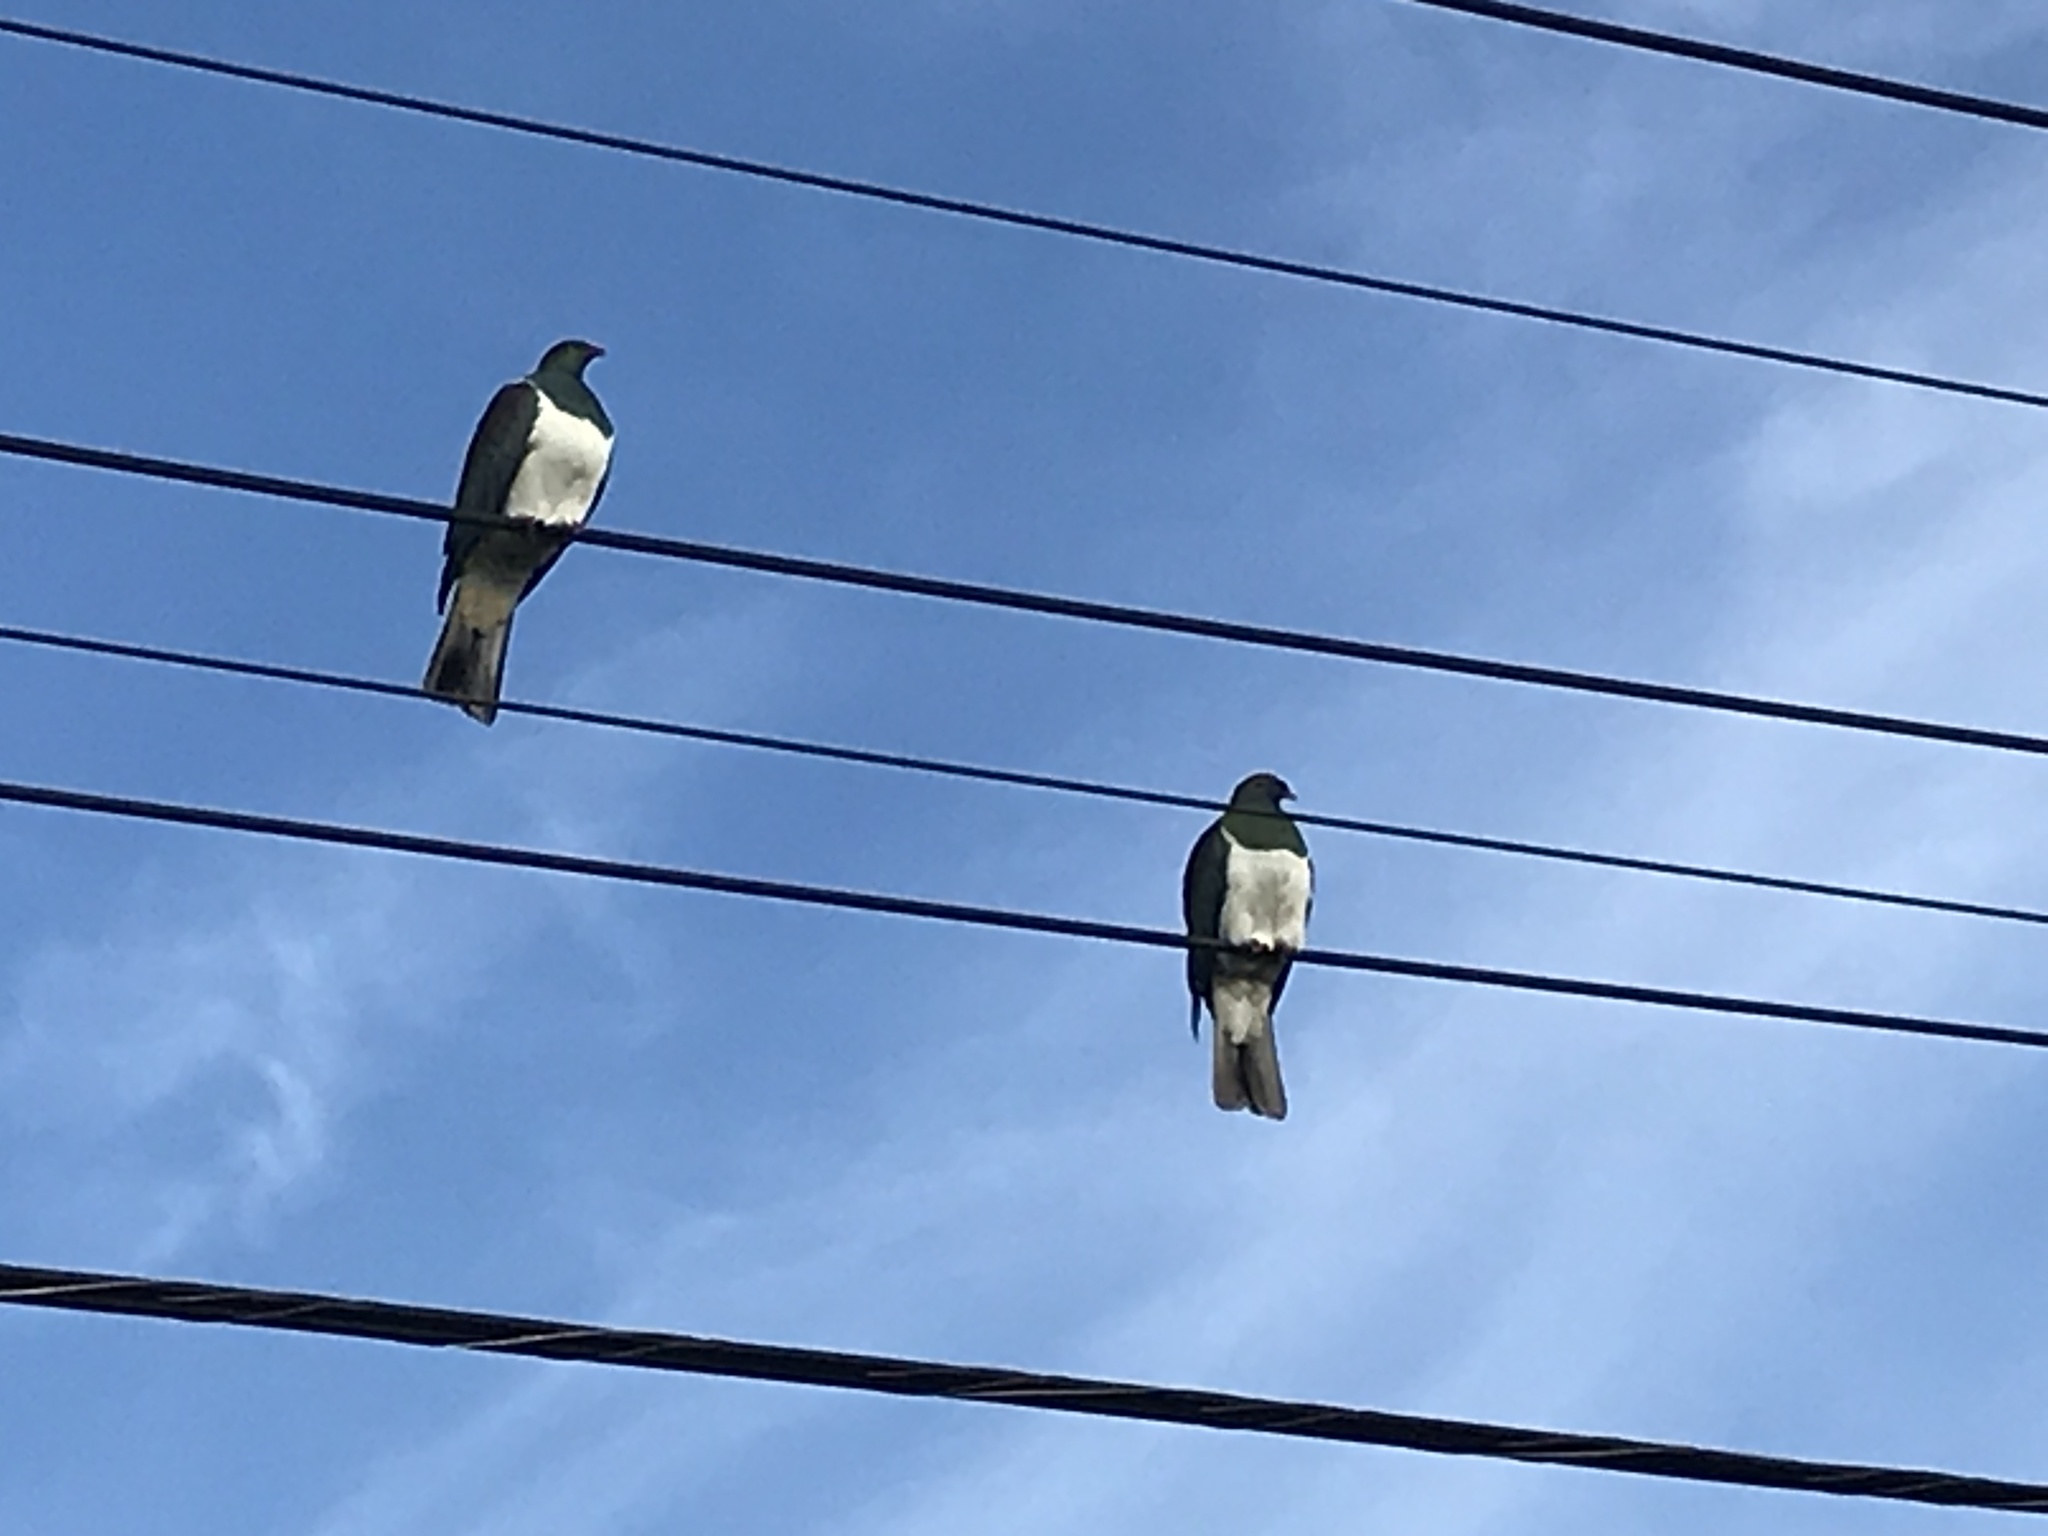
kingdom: Animalia
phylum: Chordata
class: Aves
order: Columbiformes
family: Columbidae
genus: Hemiphaga
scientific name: Hemiphaga novaeseelandiae
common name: New zealand pigeon
